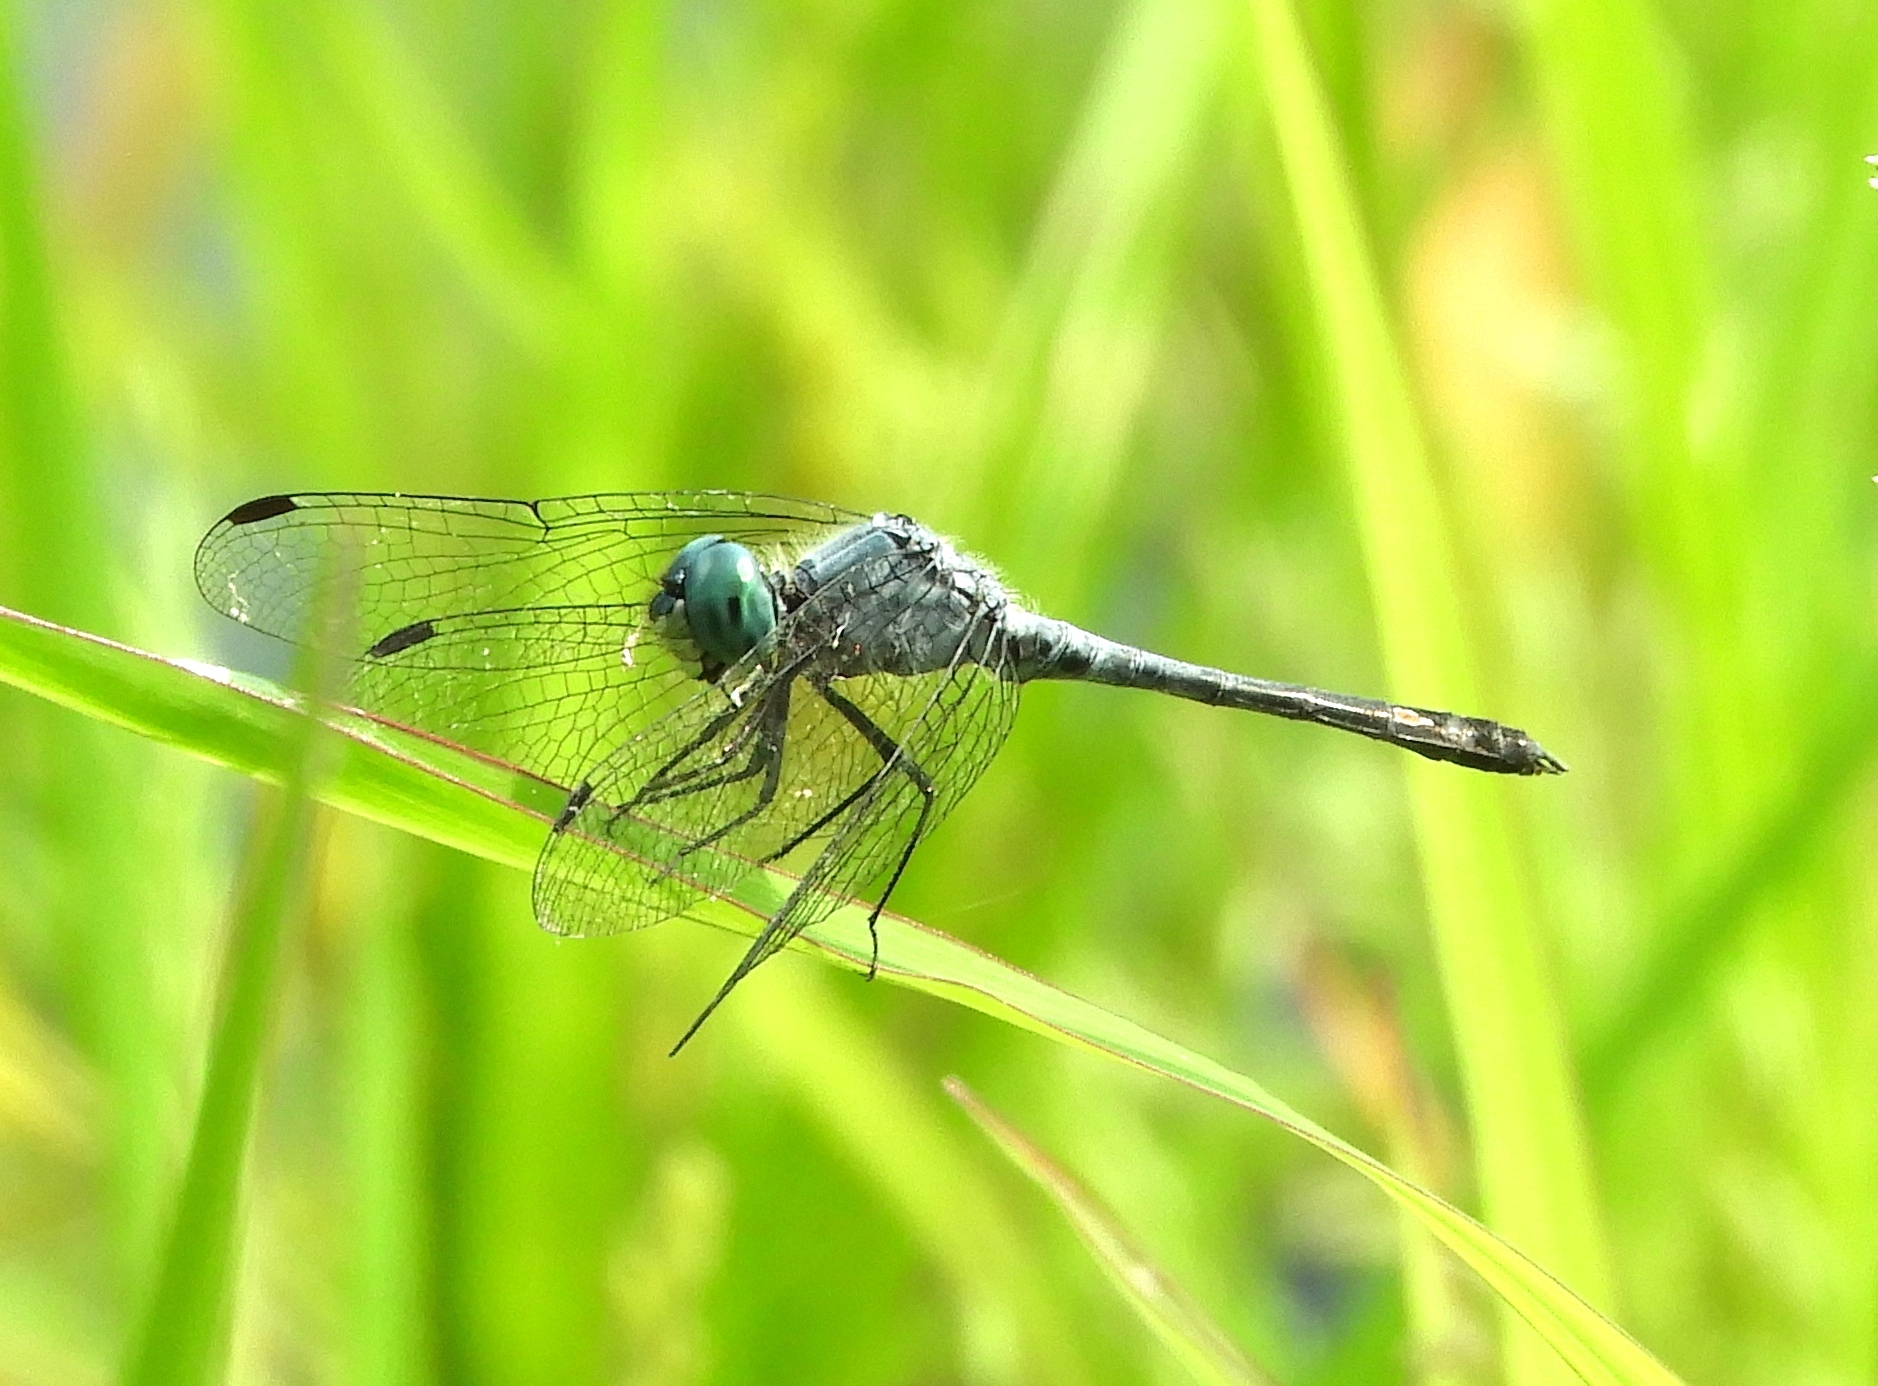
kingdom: Animalia
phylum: Arthropoda
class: Insecta
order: Odonata
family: Libellulidae
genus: Micrathyria
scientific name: Micrathyria aequalis
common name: Spot-tailed dasher
